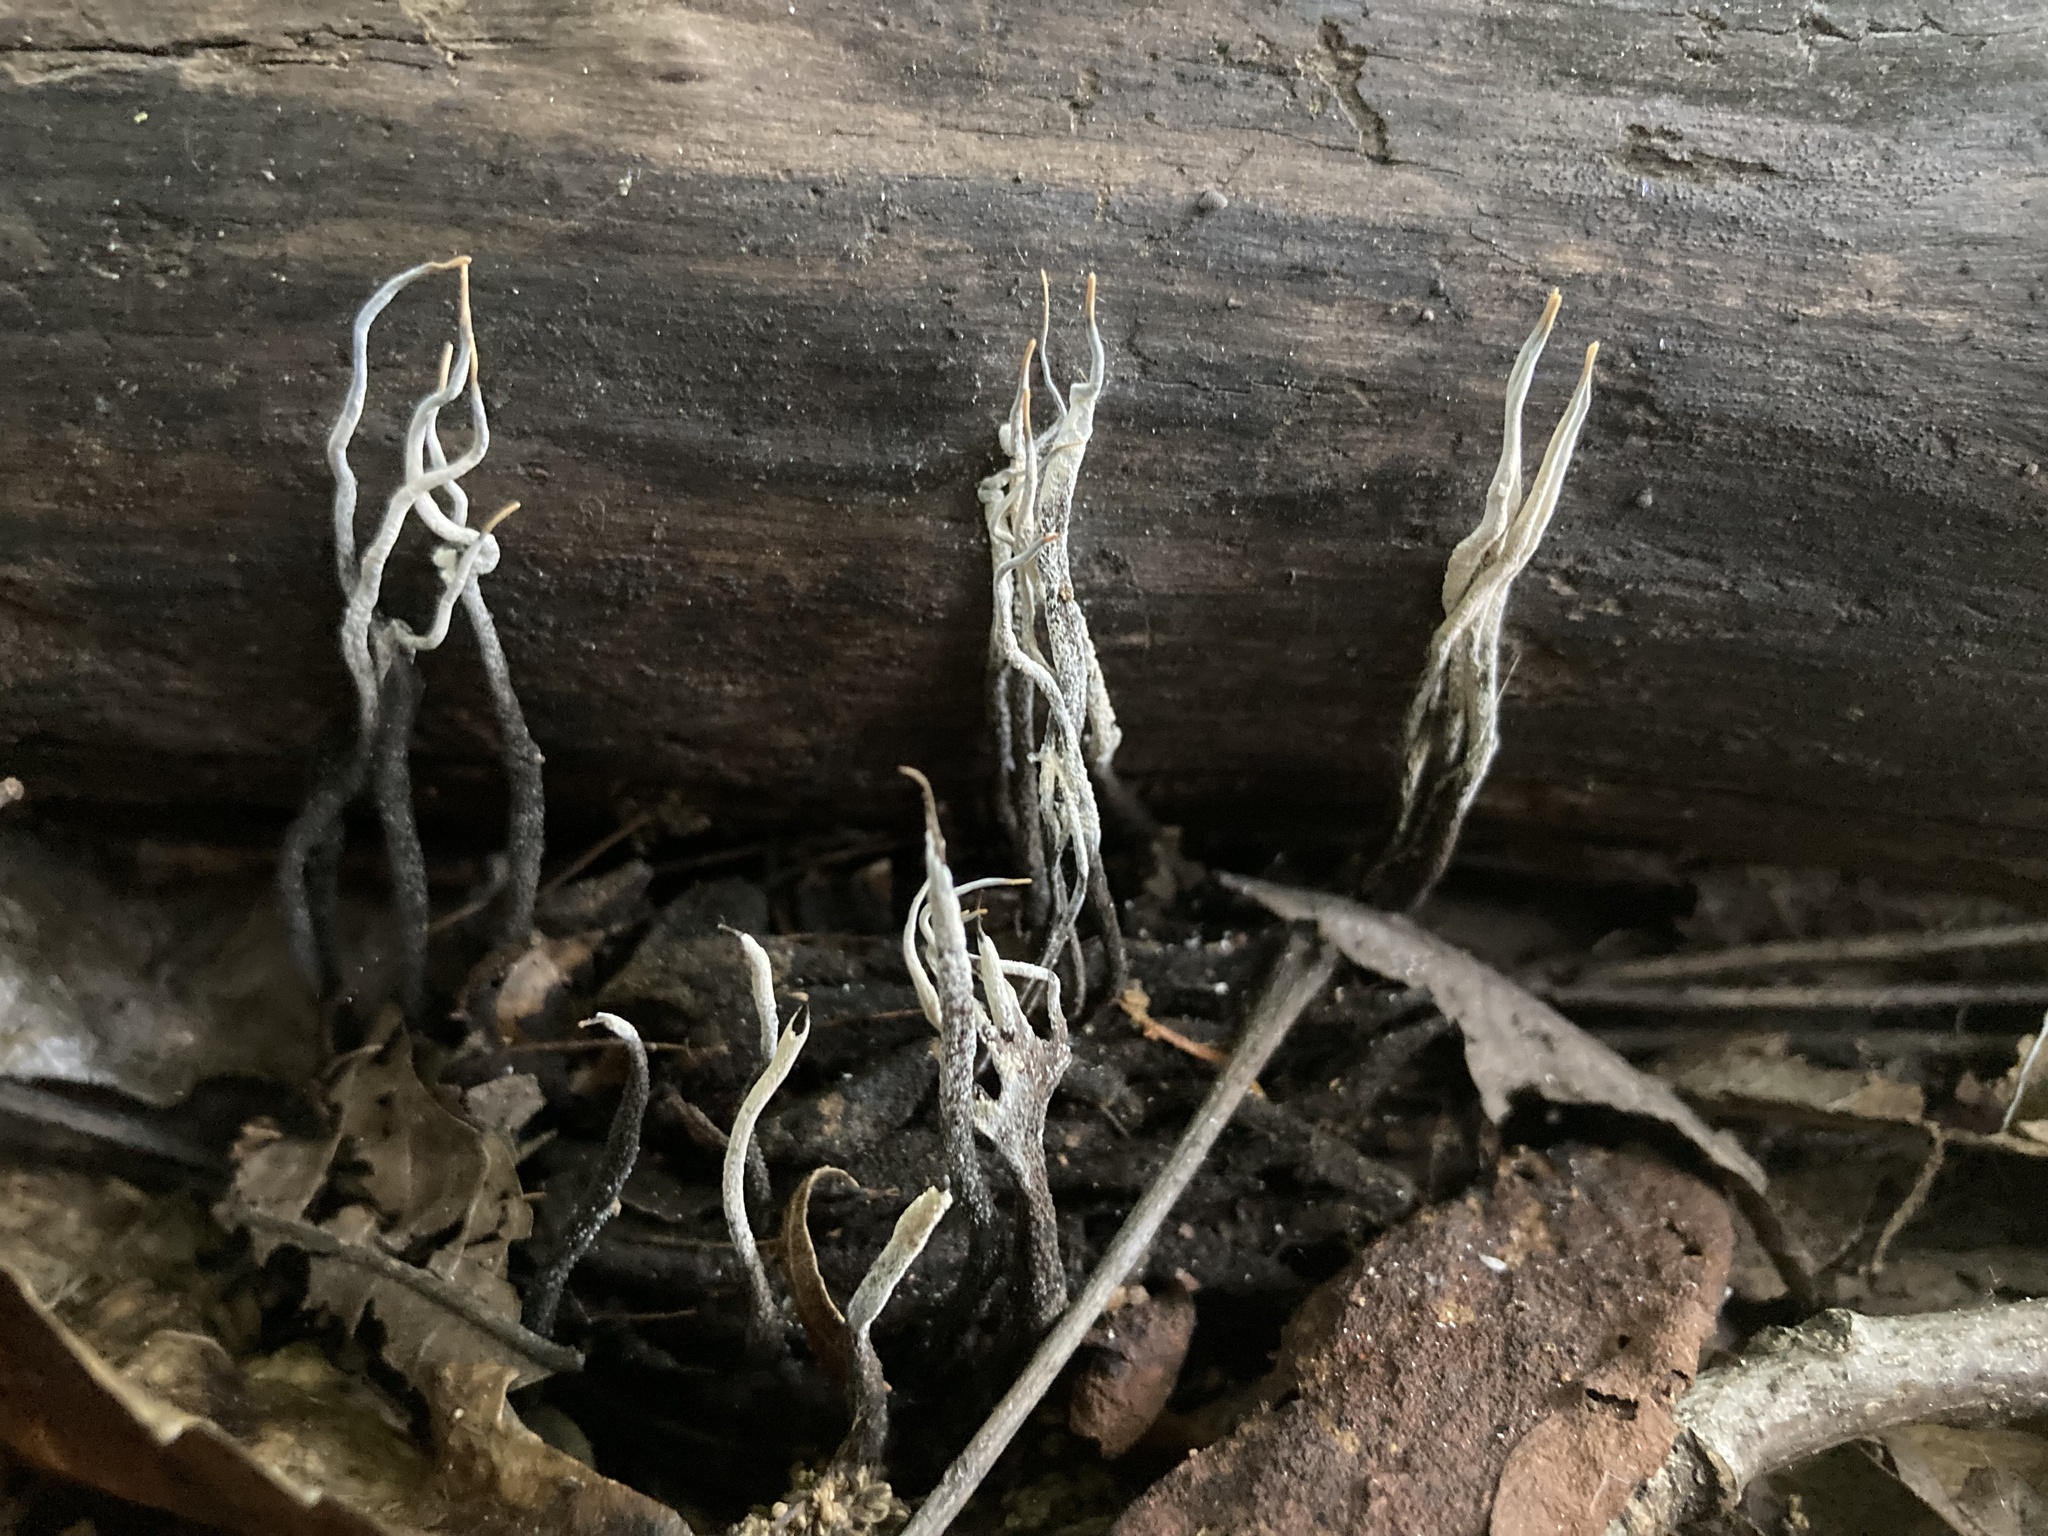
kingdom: Fungi
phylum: Ascomycota
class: Sordariomycetes
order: Xylariales
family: Xylariaceae
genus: Xylaria
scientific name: Xylaria magnoliae
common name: Magnolia-cone xylaria
